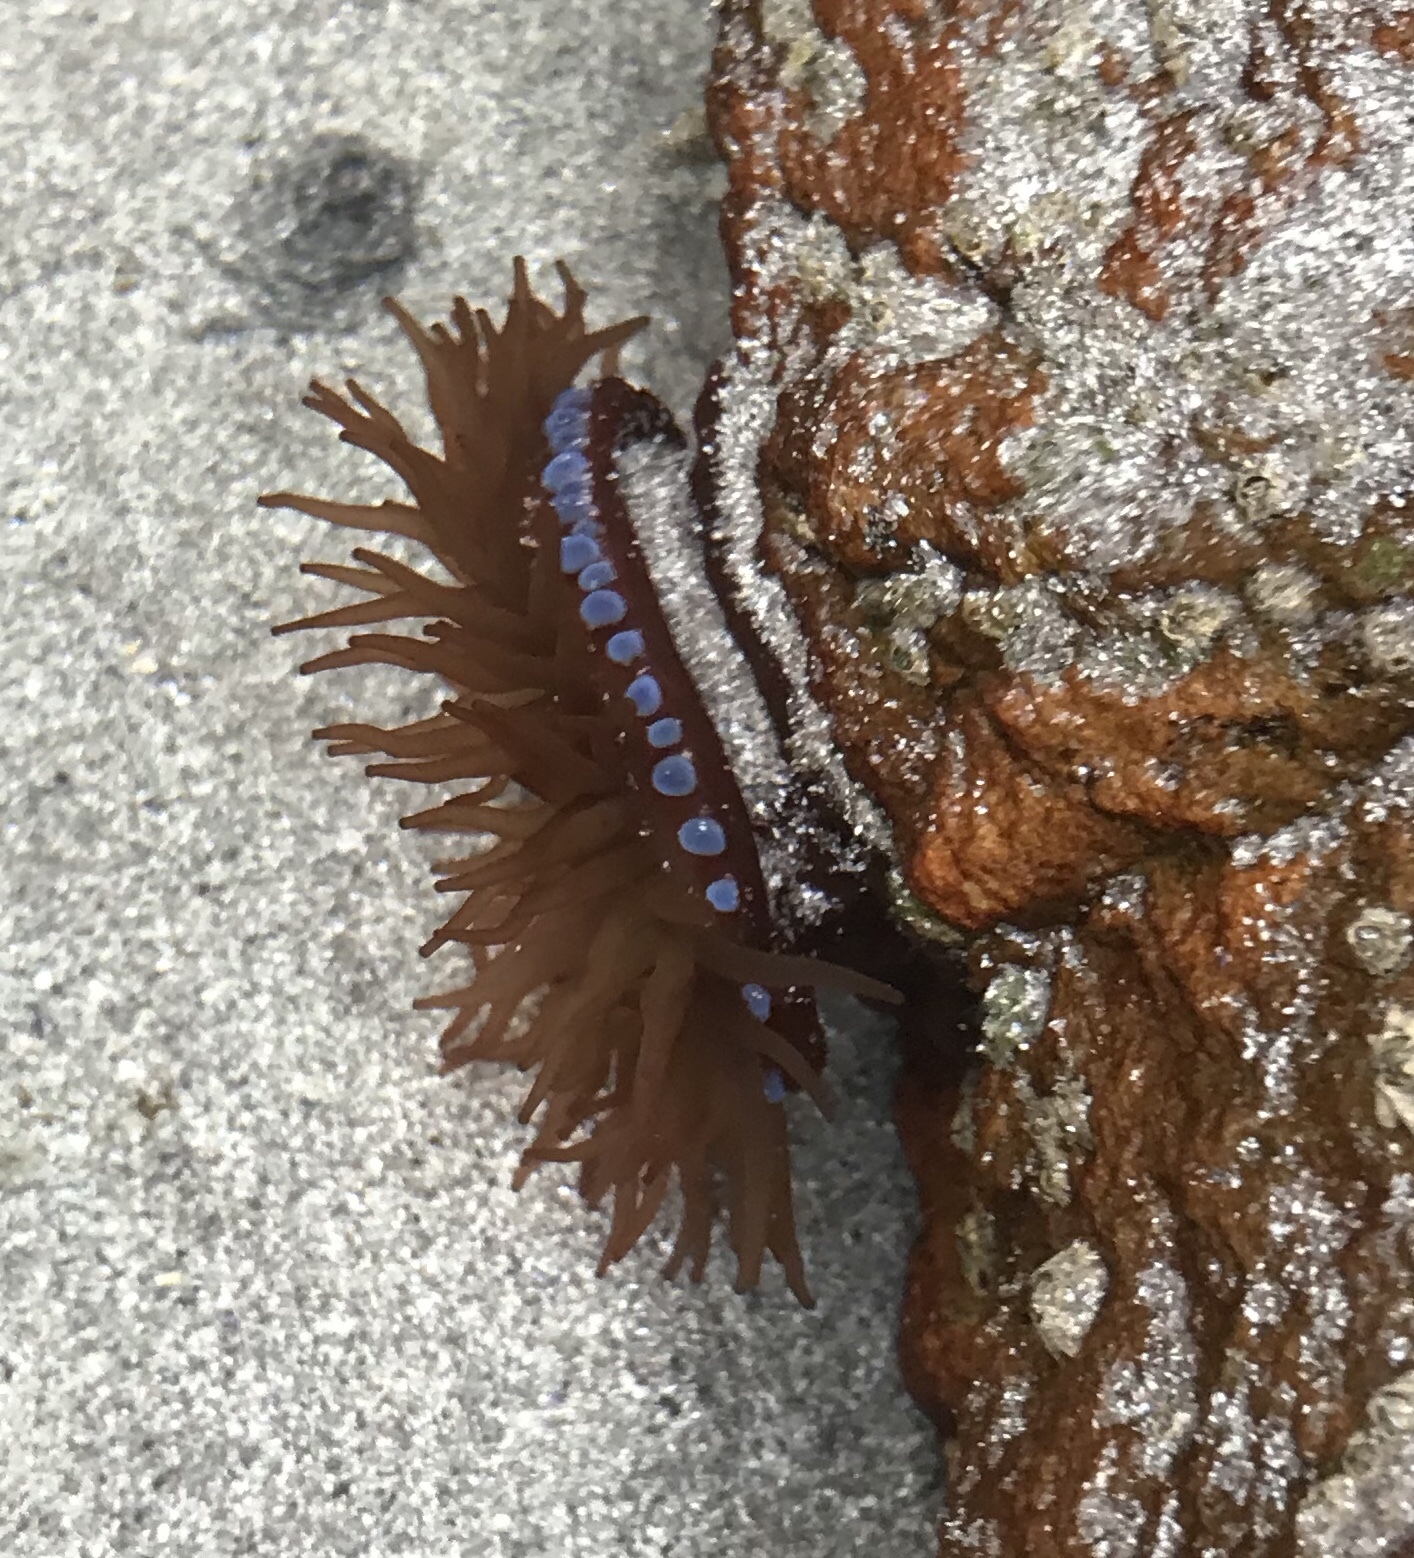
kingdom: Animalia
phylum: Cnidaria
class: Anthozoa
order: Actiniaria
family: Actiniidae
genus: Actinia
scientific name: Actinia equina
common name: Beadlet anemone
